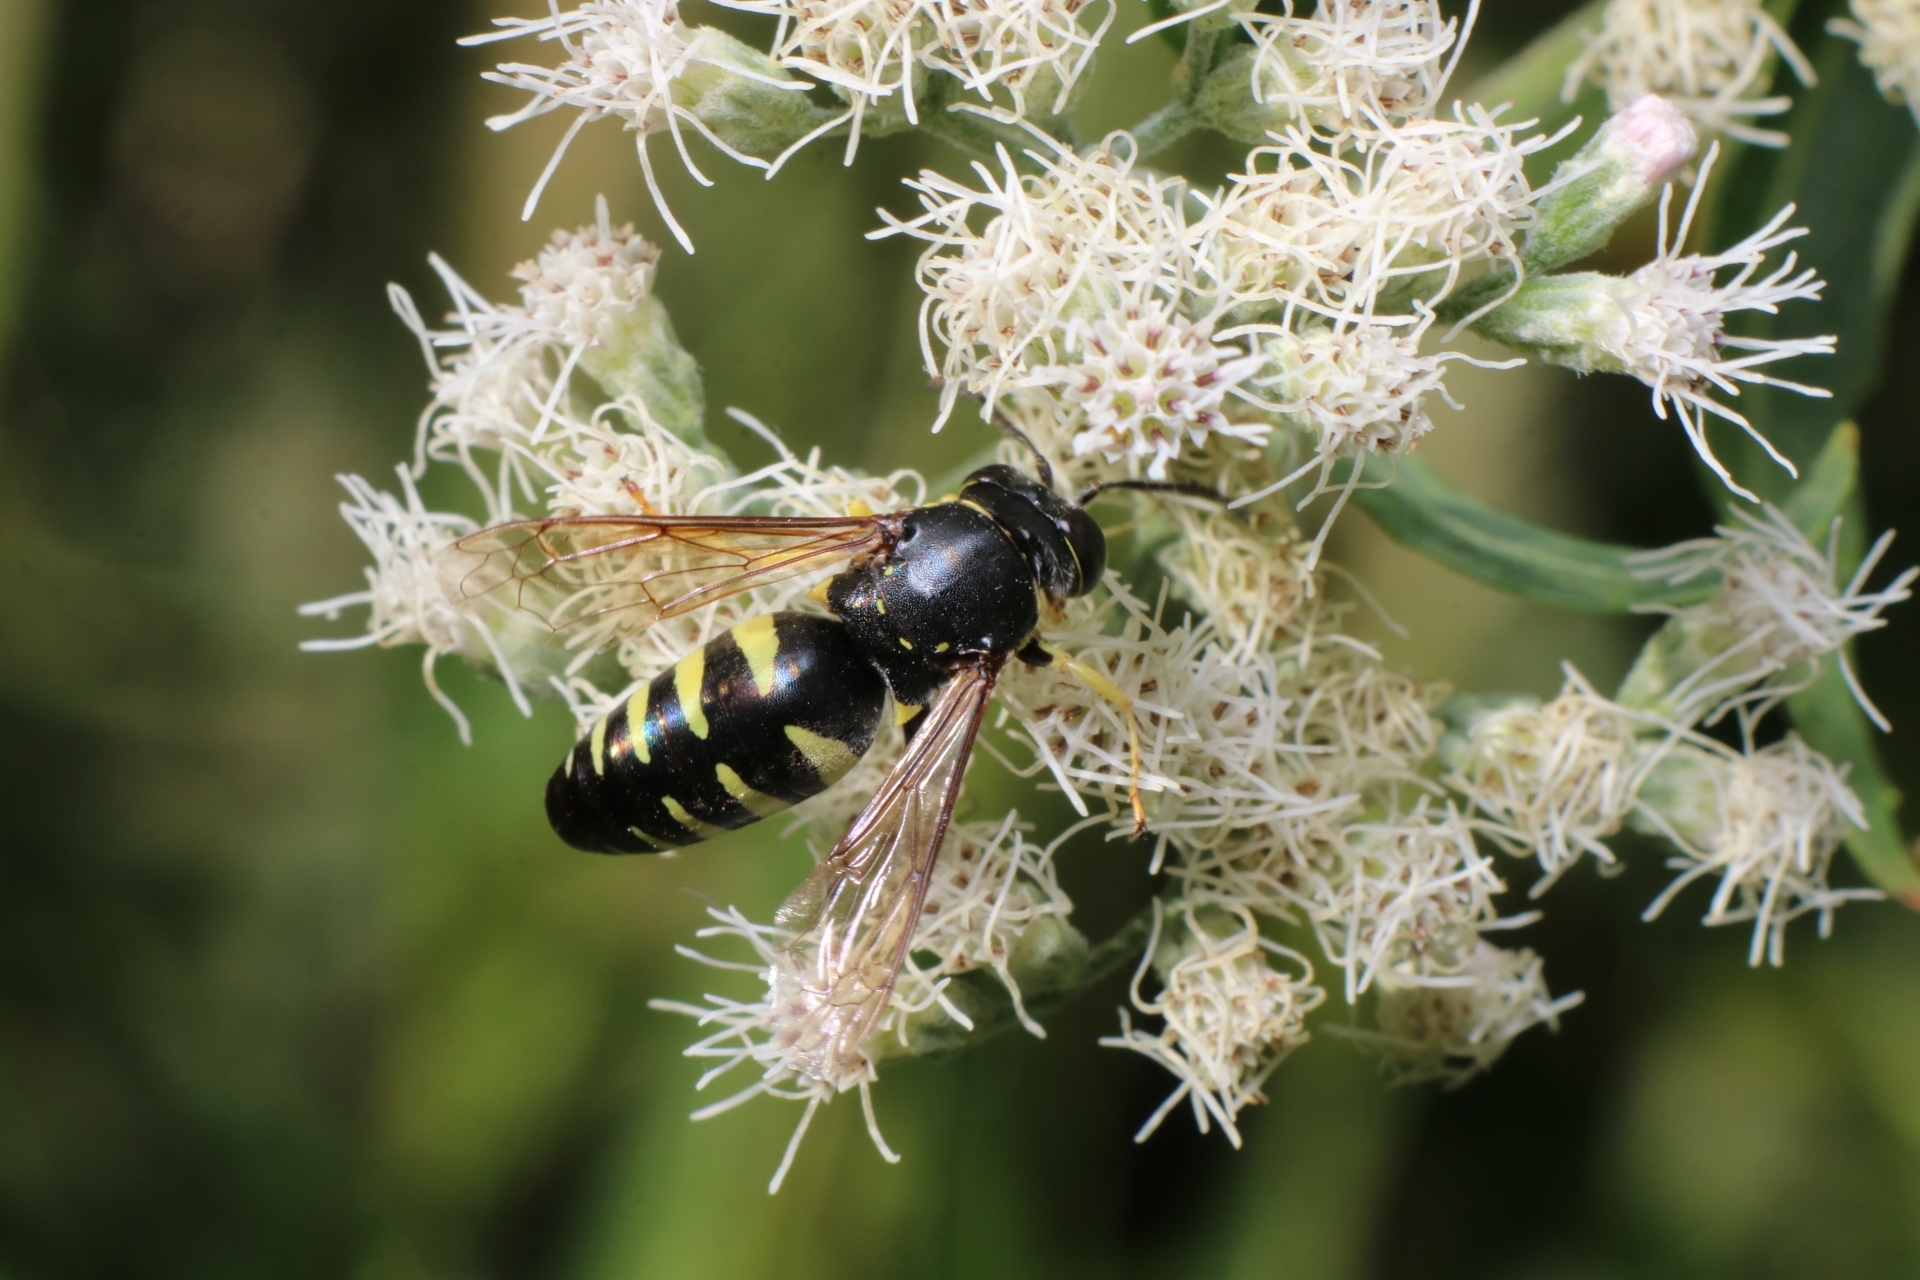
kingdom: Animalia
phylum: Arthropoda
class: Insecta
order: Hymenoptera
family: Crabronidae
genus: Bicyrtes
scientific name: Bicyrtes quadrifasciatus
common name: Four-banded stink bug hunter wasp
